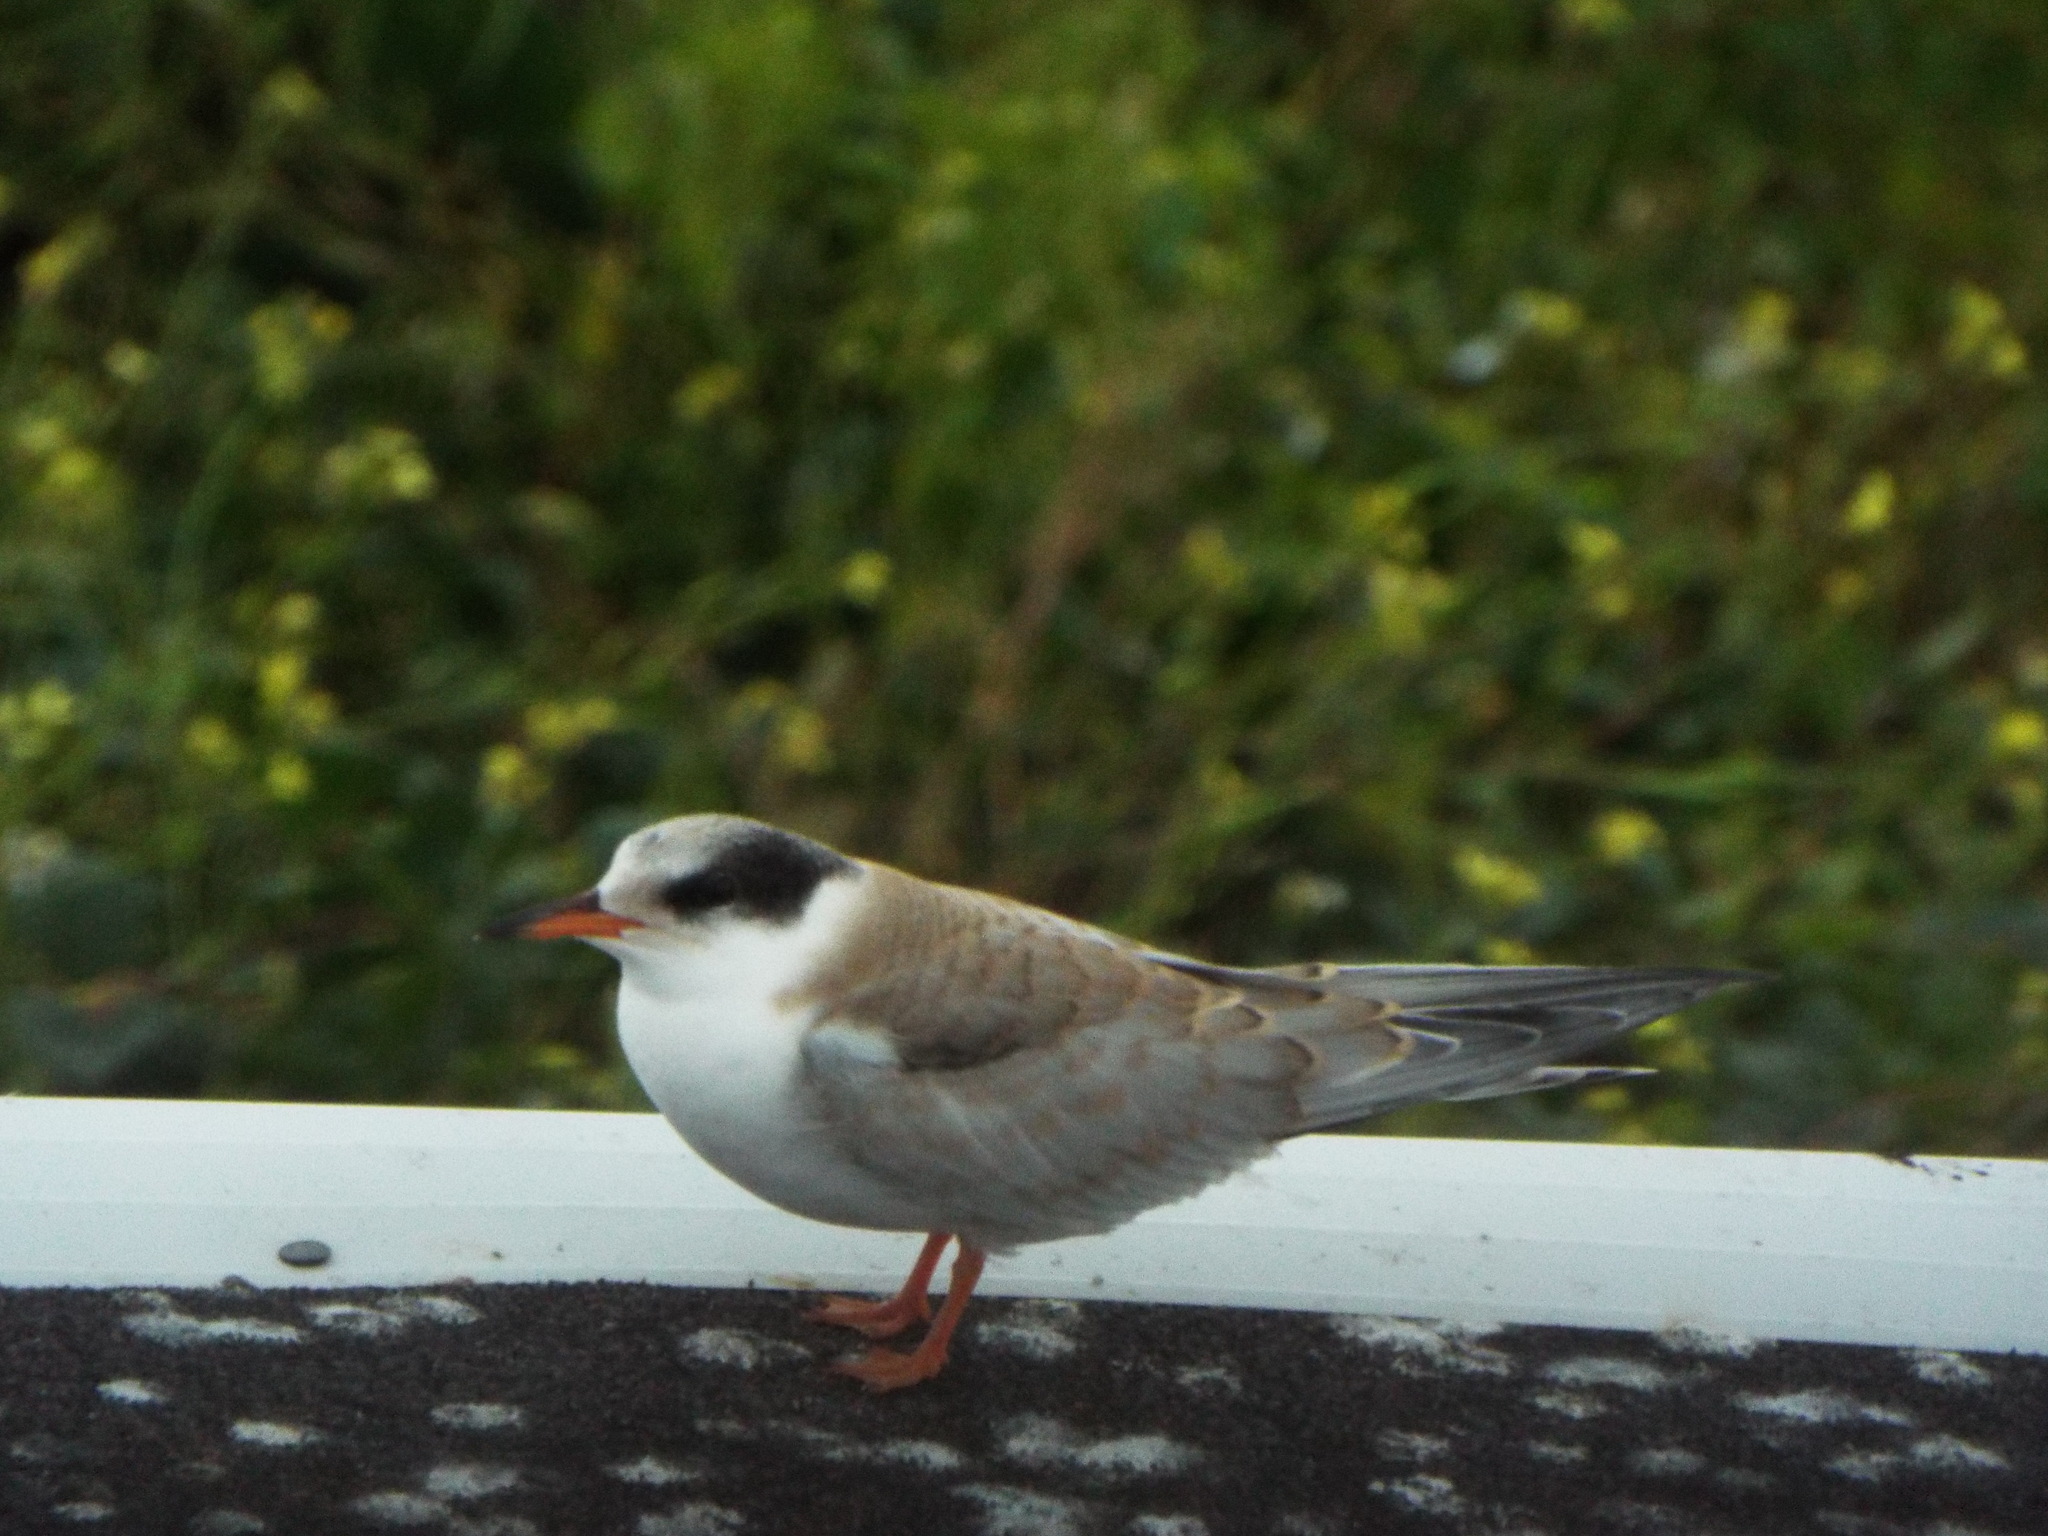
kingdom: Animalia
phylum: Chordata
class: Aves
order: Charadriiformes
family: Laridae
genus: Sterna
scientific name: Sterna hirundo
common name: Common tern
